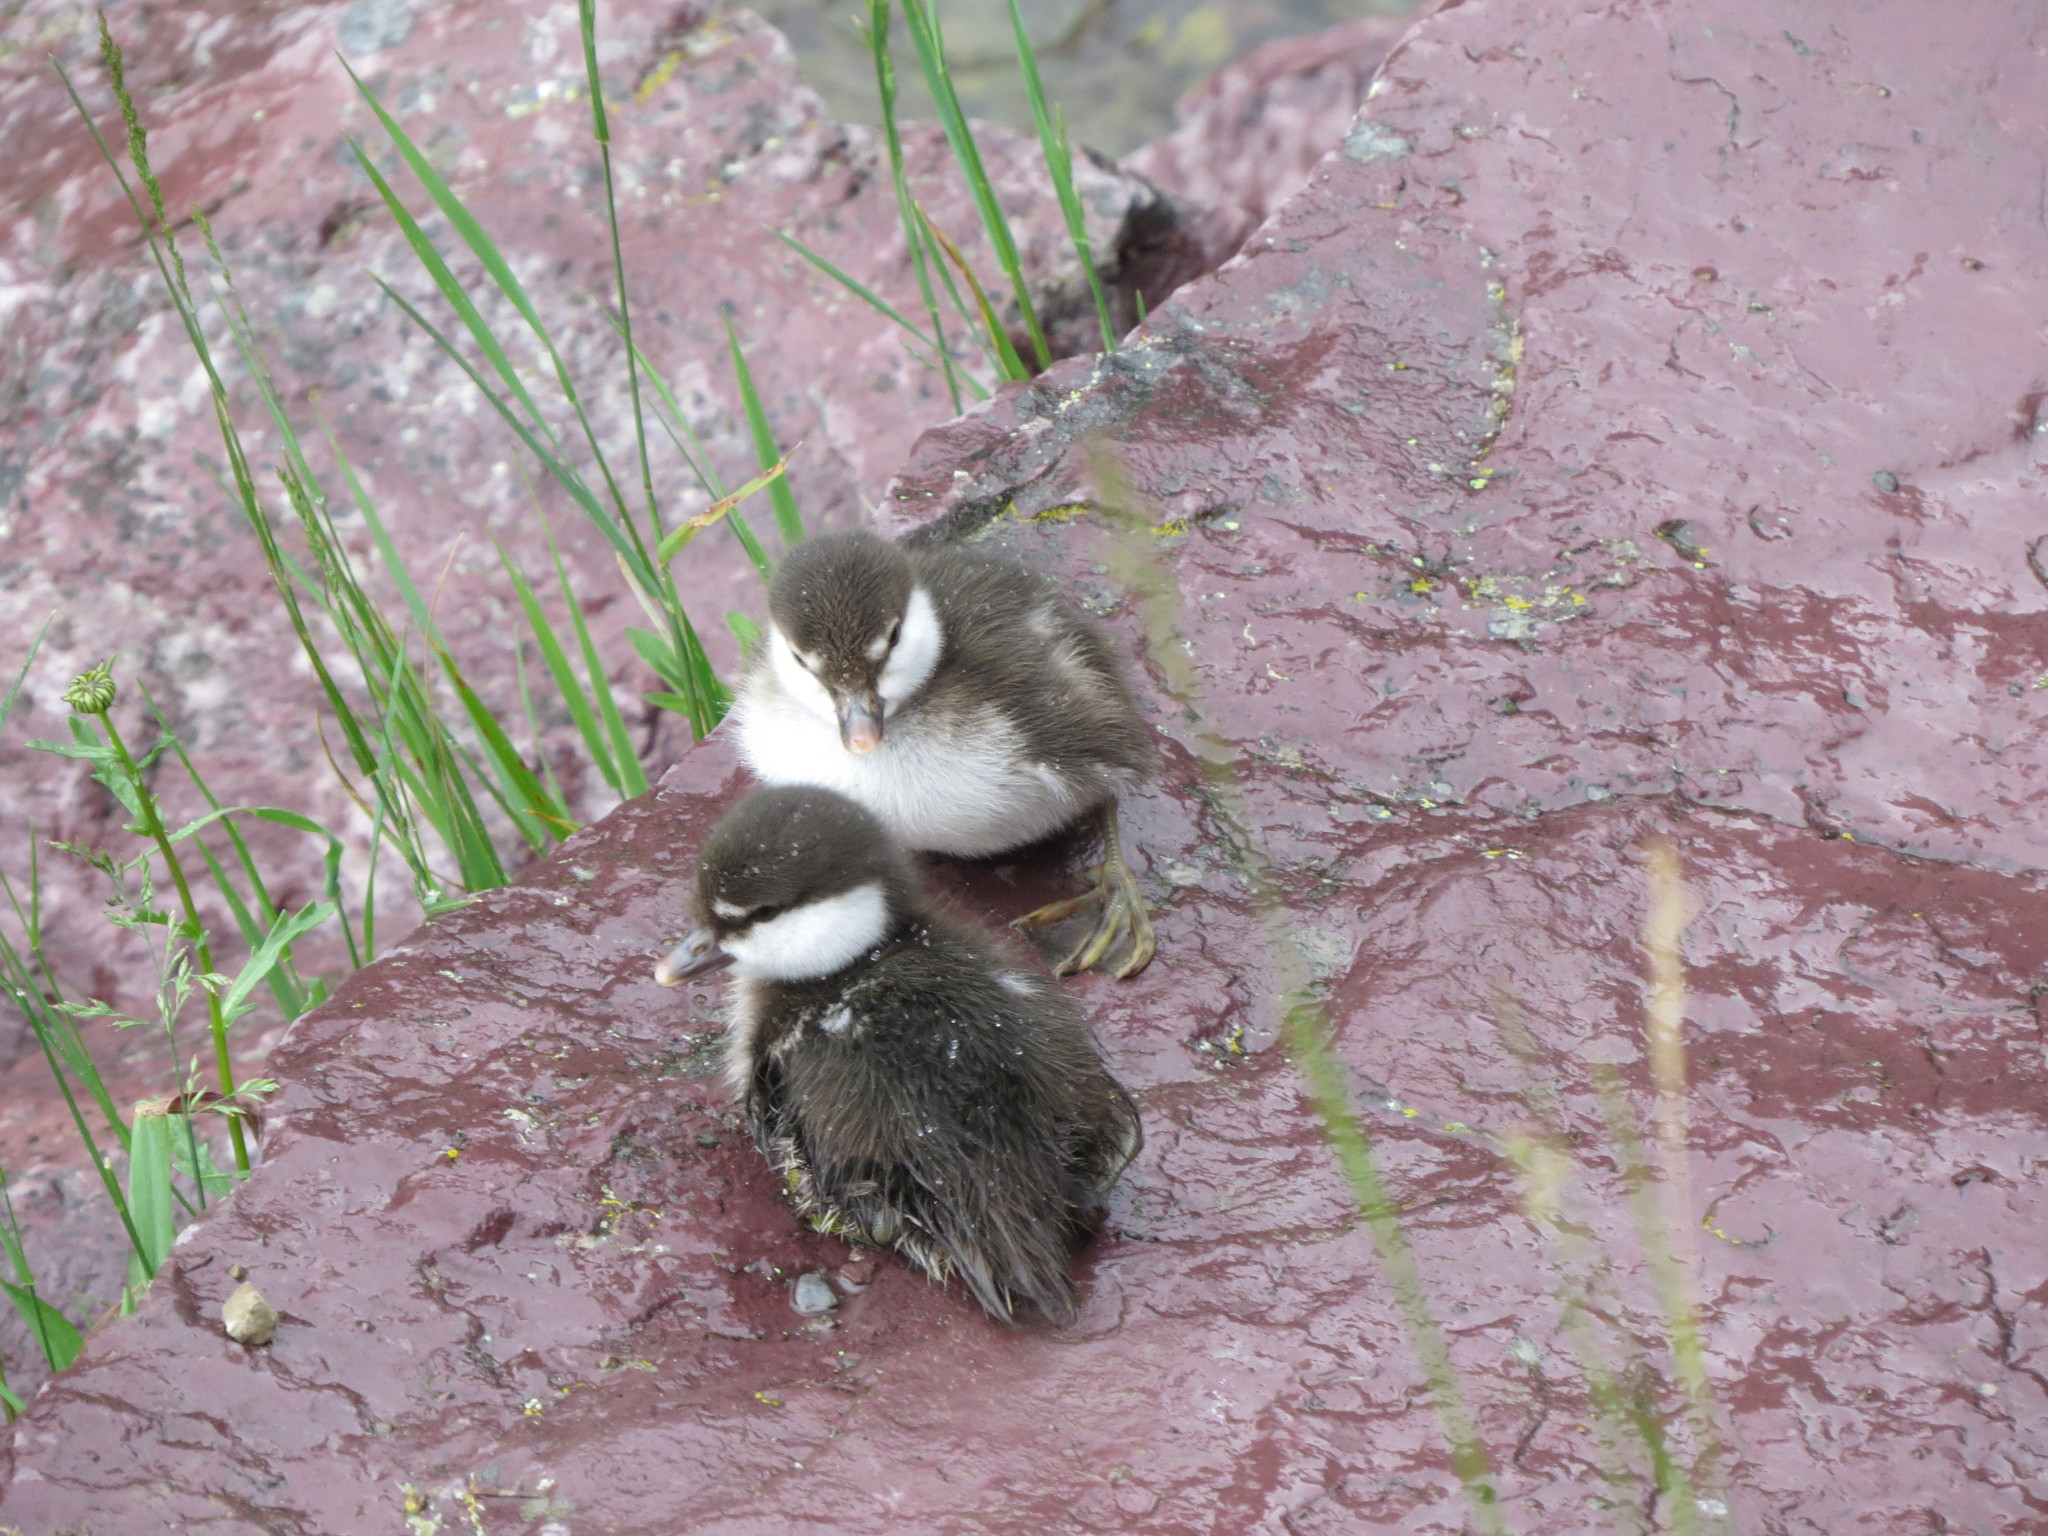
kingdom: Animalia
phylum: Chordata
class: Aves
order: Anseriformes
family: Anatidae
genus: Histrionicus
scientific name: Histrionicus histrionicus
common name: Harlequin duck
